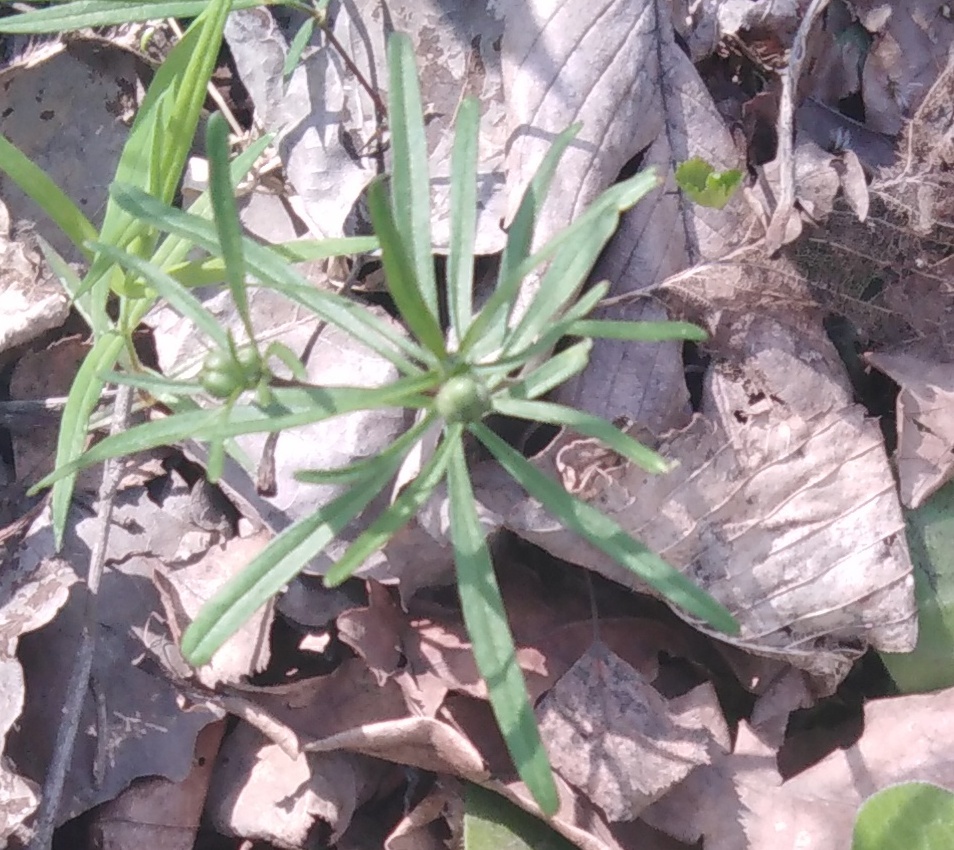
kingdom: Plantae
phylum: Tracheophyta
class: Magnoliopsida
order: Ranunculales
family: Ranunculaceae
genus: Ranunculus
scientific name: Ranunculus auricomus
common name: Goldilocks buttercup
